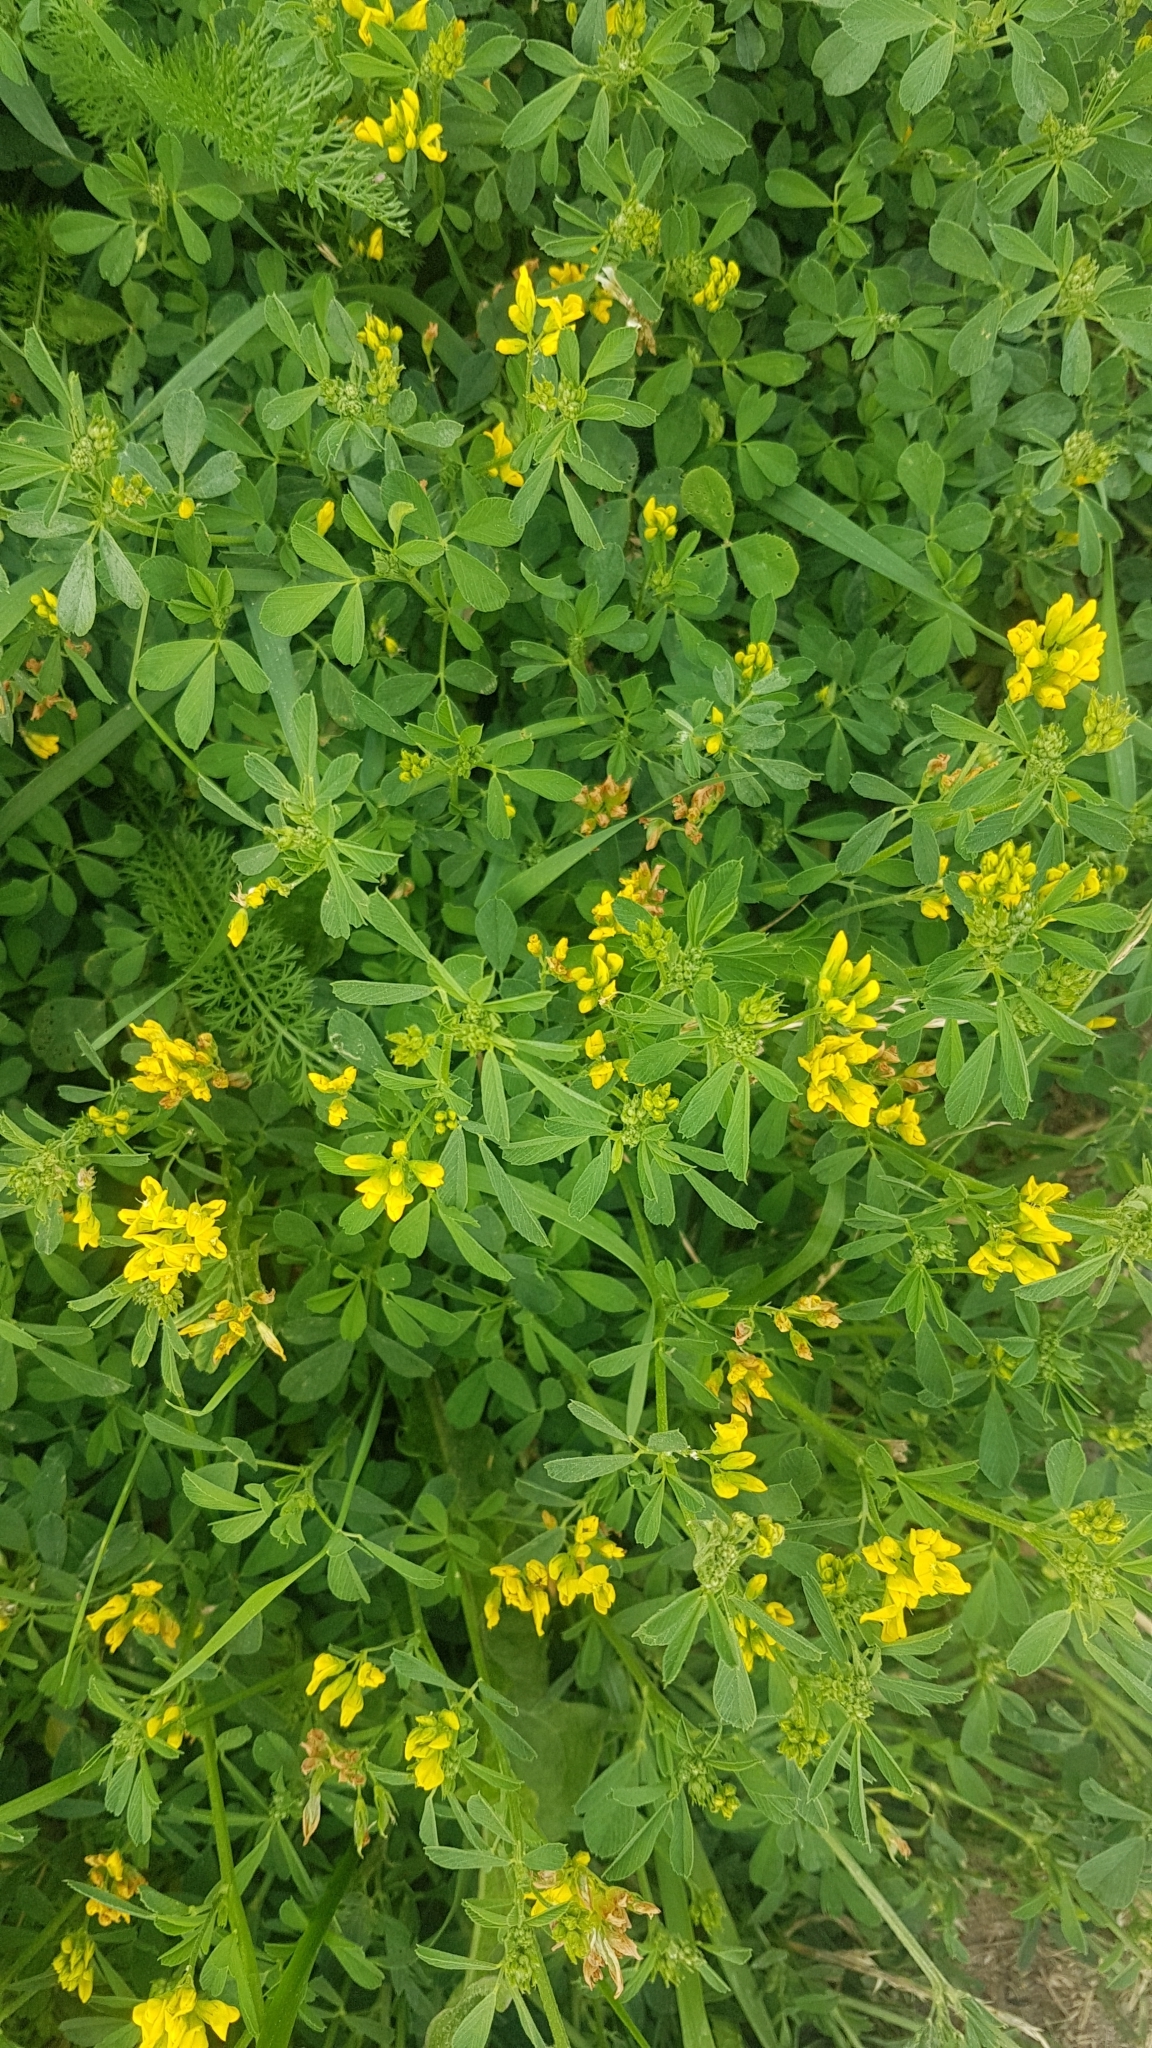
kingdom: Plantae
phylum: Tracheophyta
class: Magnoliopsida
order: Fabales
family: Fabaceae
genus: Medicago
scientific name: Medicago falcata
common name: Sickle medick
